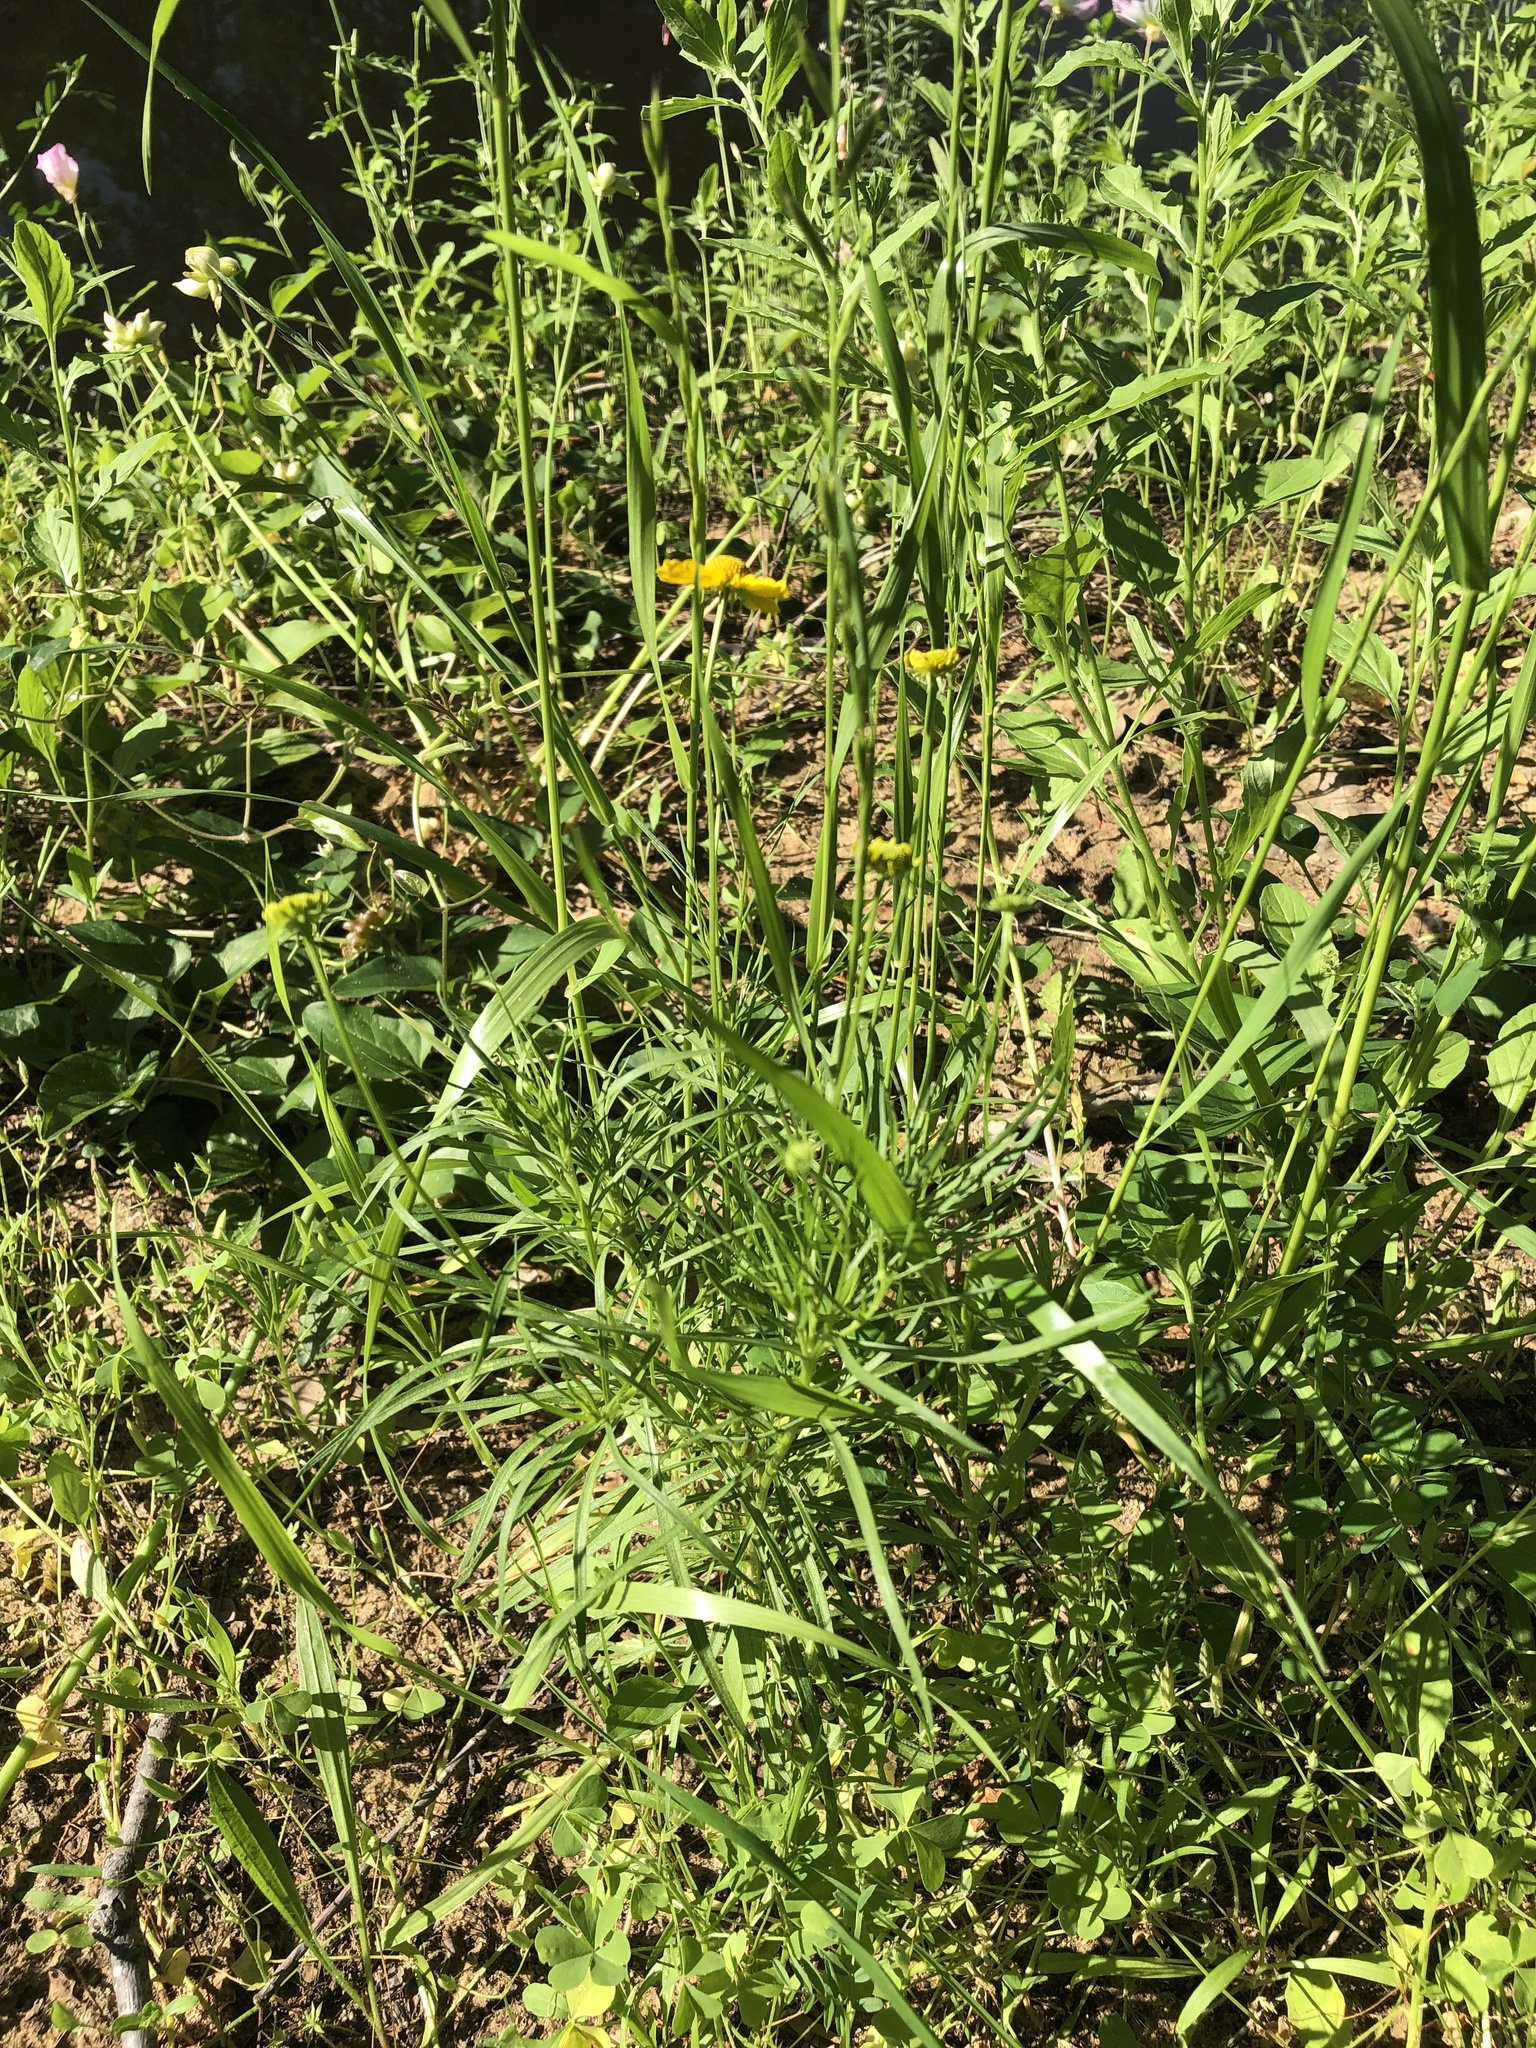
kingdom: Plantae
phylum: Tracheophyta
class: Magnoliopsida
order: Asterales
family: Asteraceae
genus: Helenium
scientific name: Helenium amarum
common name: Bitter sneezeweed
